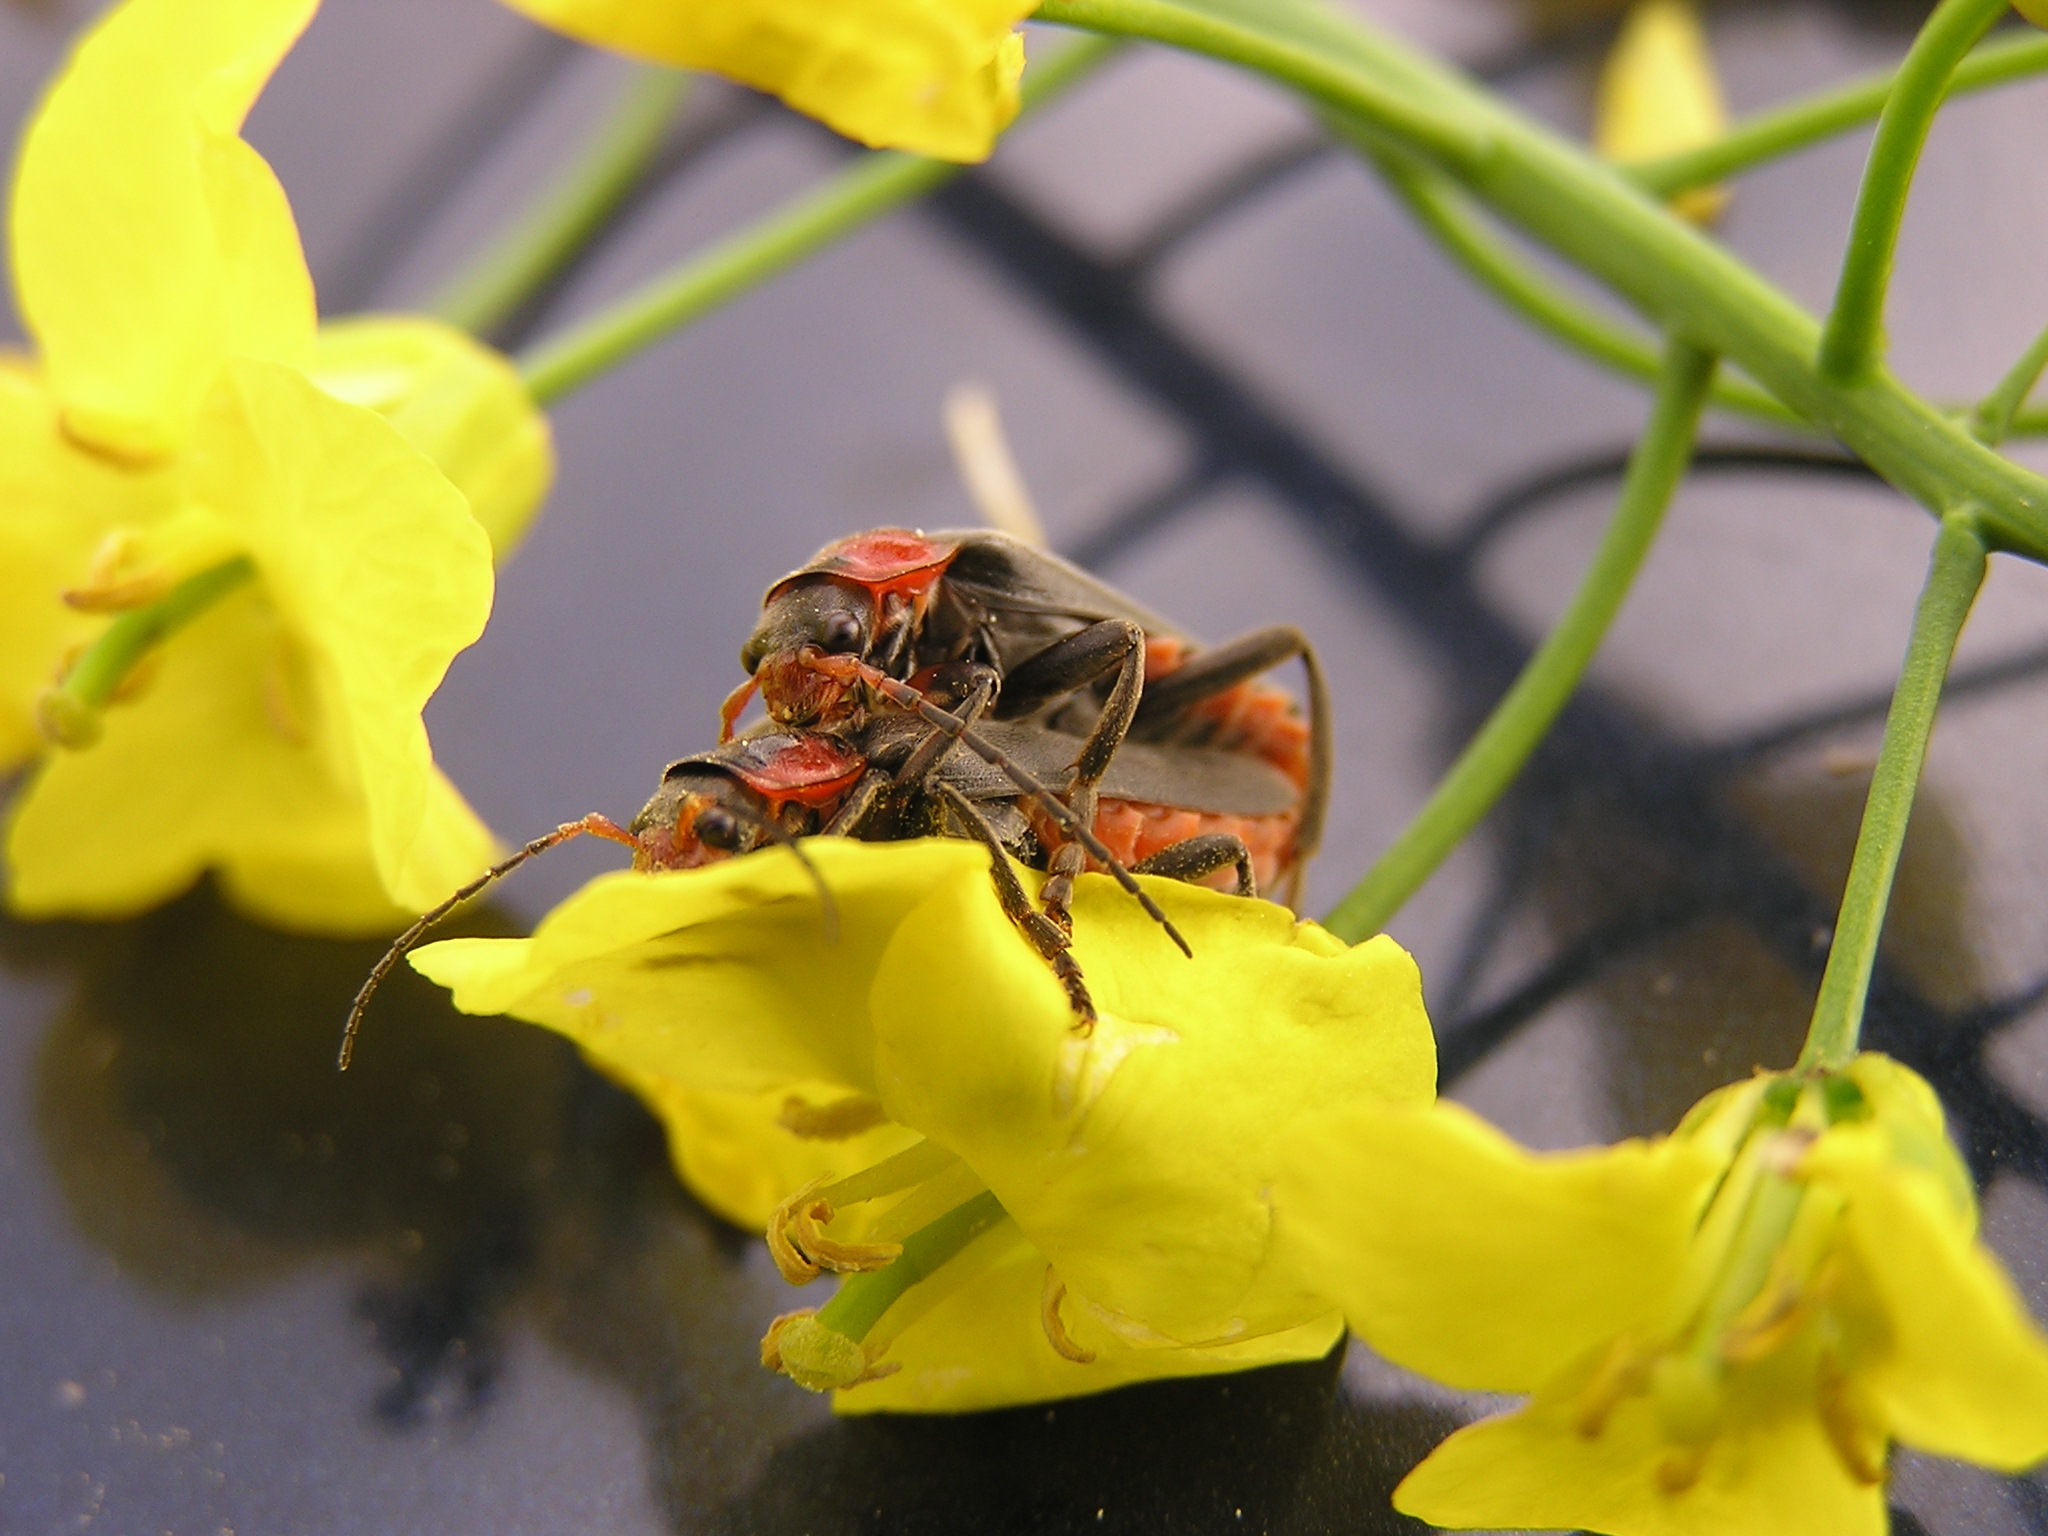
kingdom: Animalia
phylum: Arthropoda
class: Insecta
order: Coleoptera
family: Cantharidae
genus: Cantharis
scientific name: Cantharis fusca
